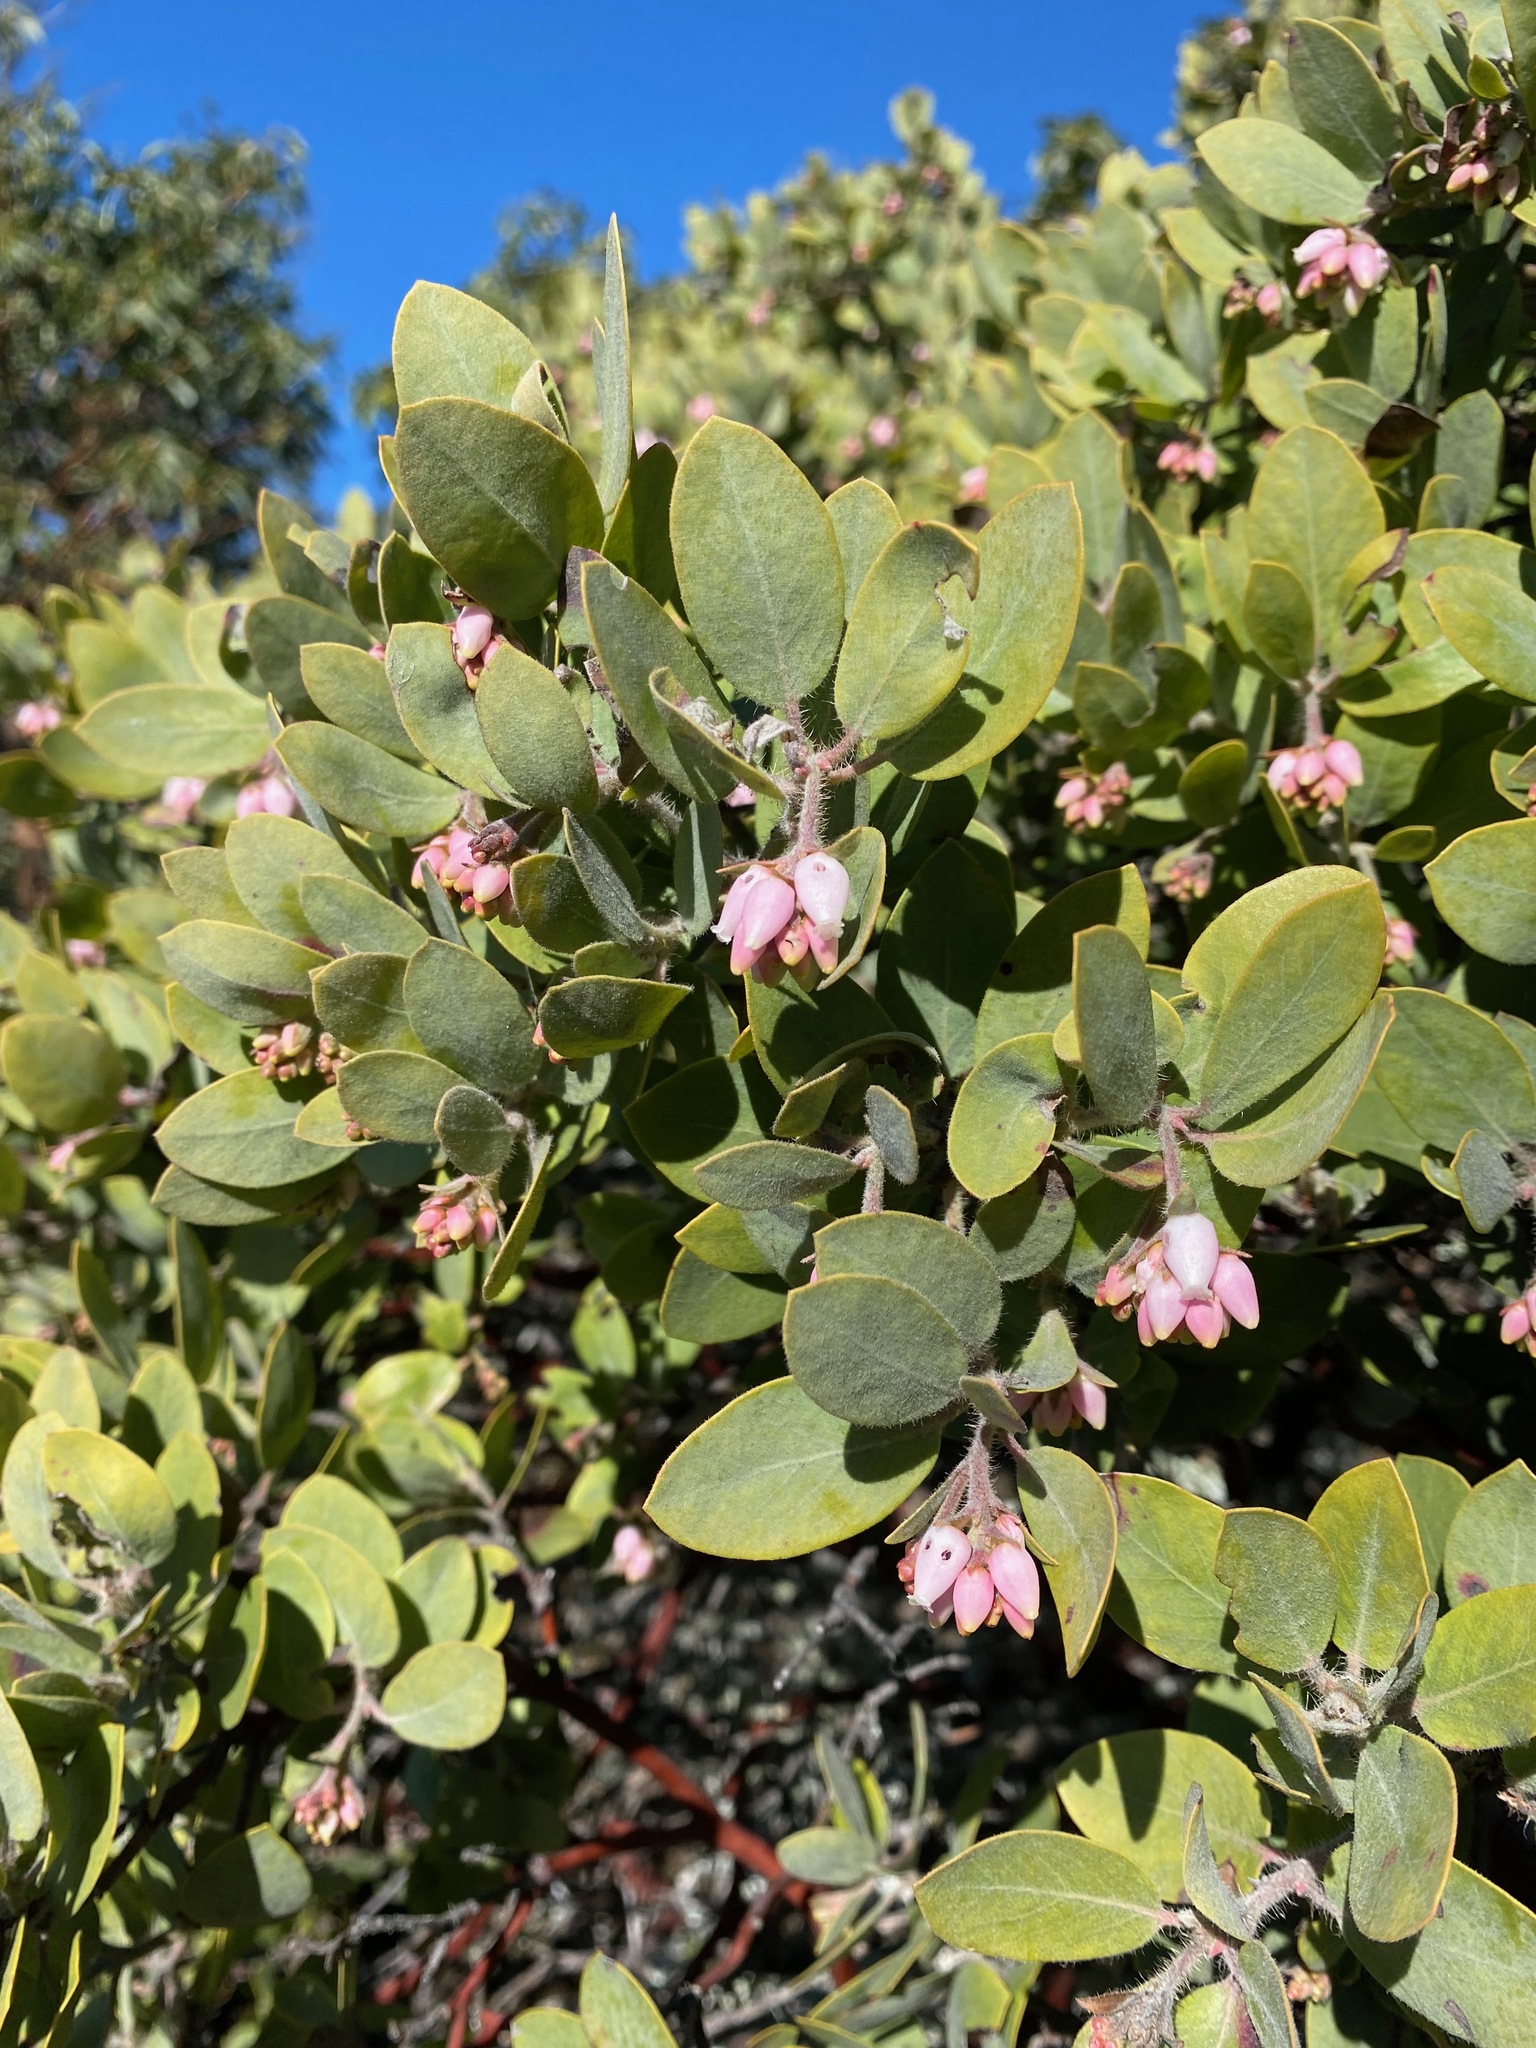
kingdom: Plantae
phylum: Tracheophyta
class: Magnoliopsida
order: Ericales
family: Ericaceae
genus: Arctostaphylos
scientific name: Arctostaphylos columbiana
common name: Bristly bearberry
